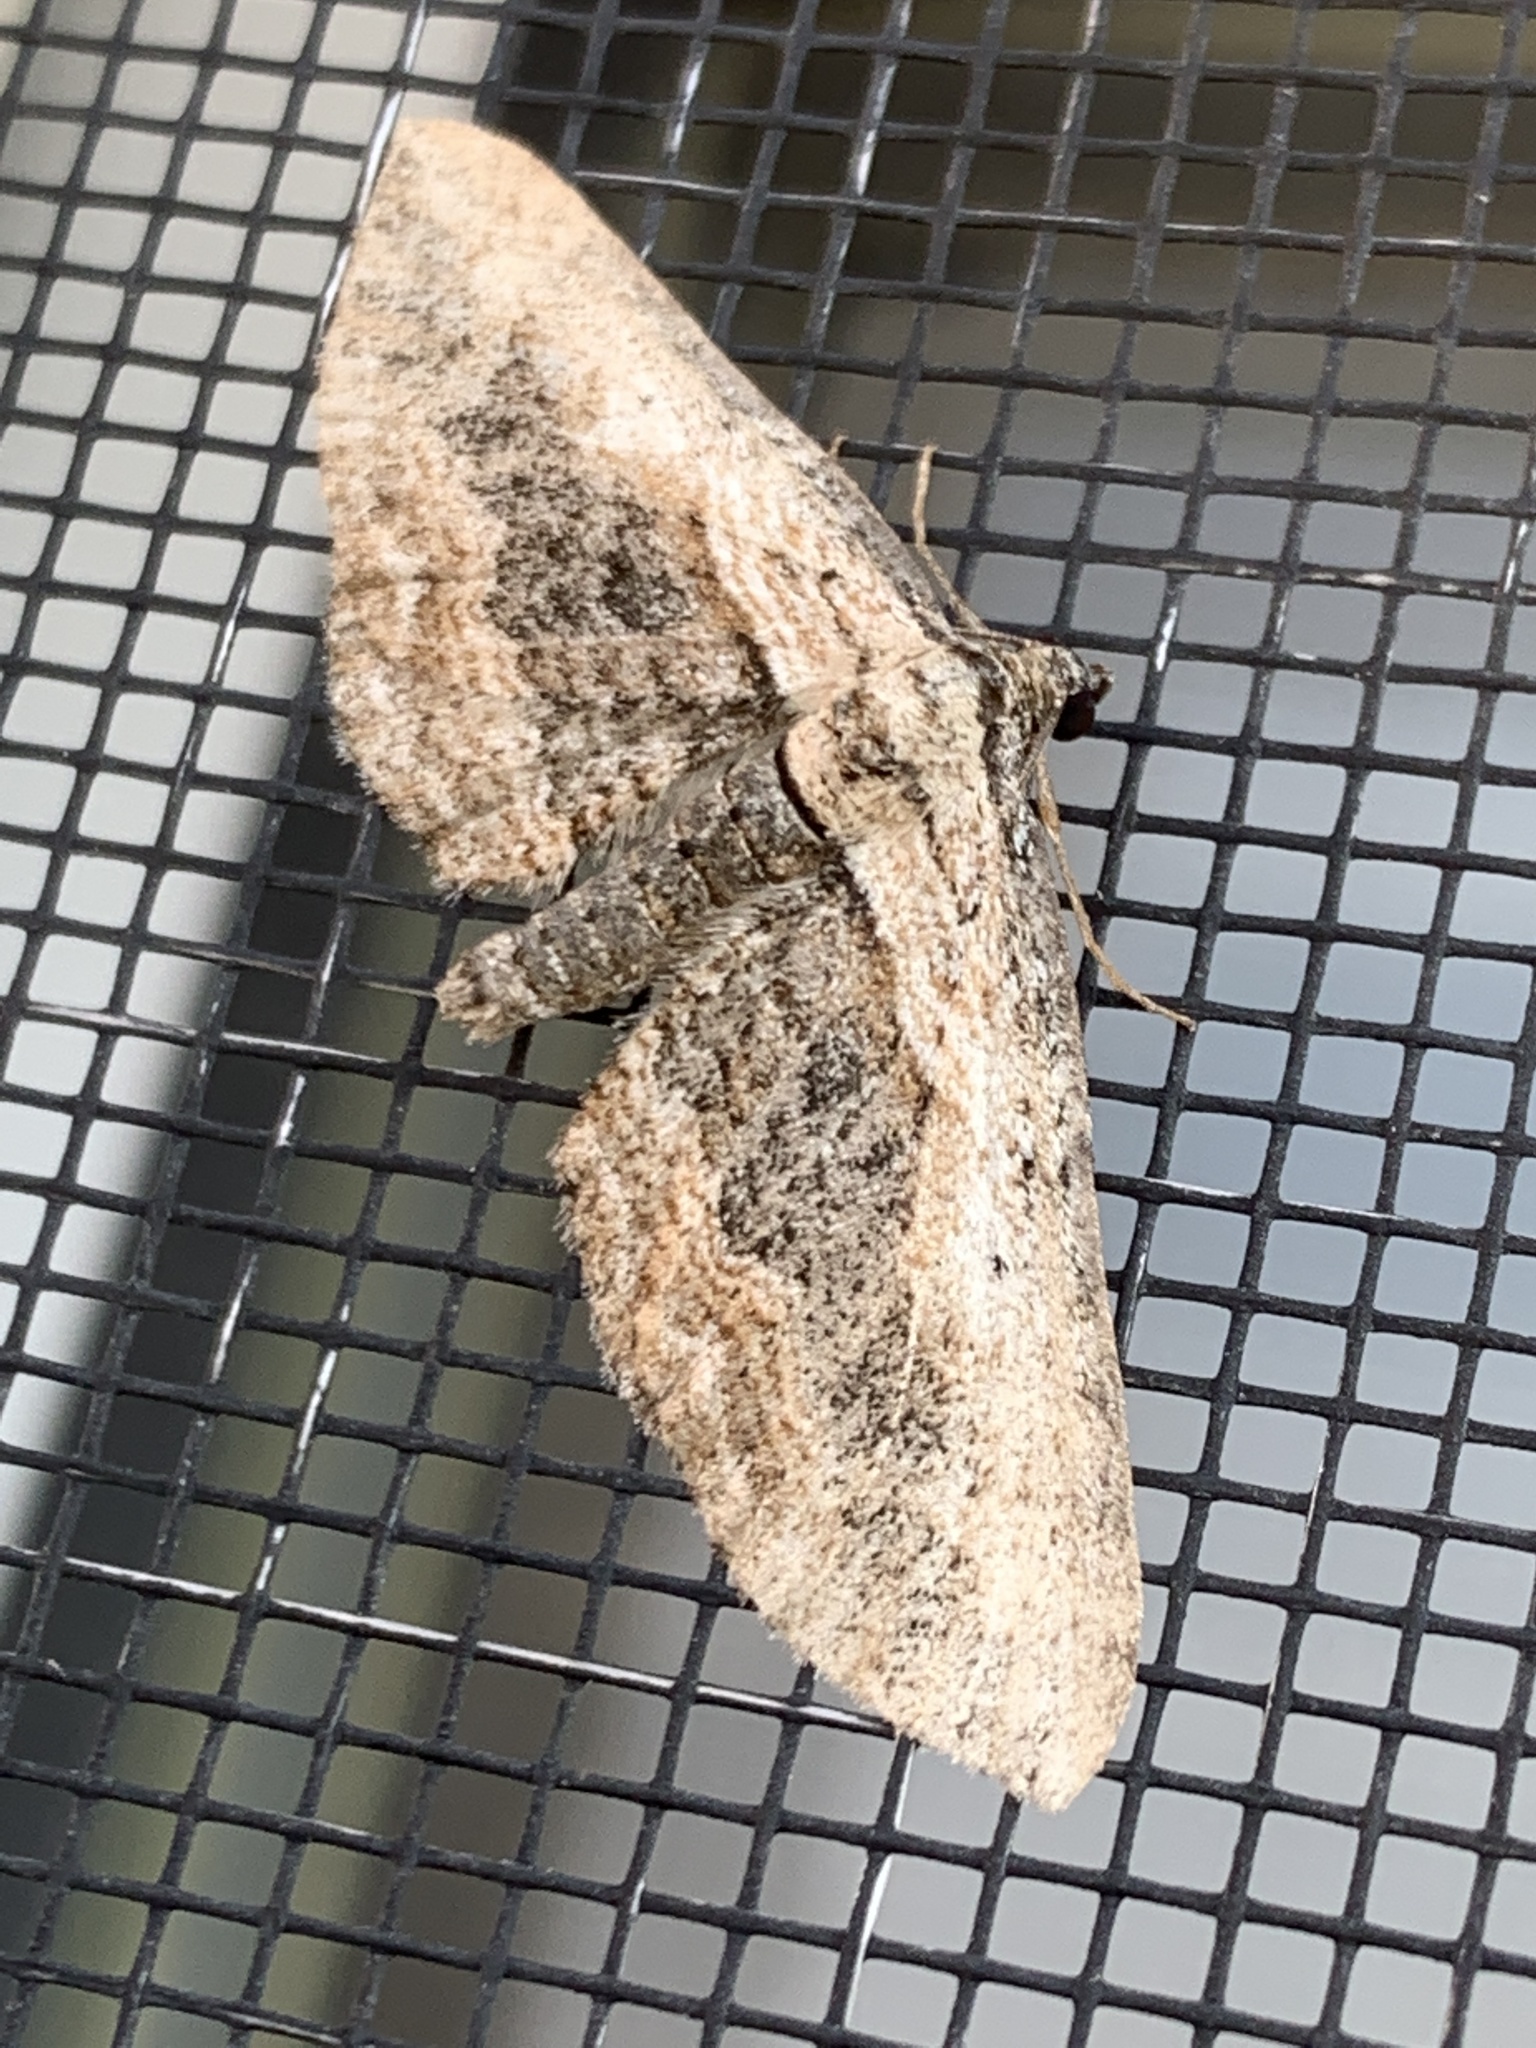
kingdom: Animalia
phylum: Arthropoda
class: Insecta
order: Lepidoptera
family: Geometridae
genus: Horisme
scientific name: Horisme intestinata
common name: Brown bark carpet
